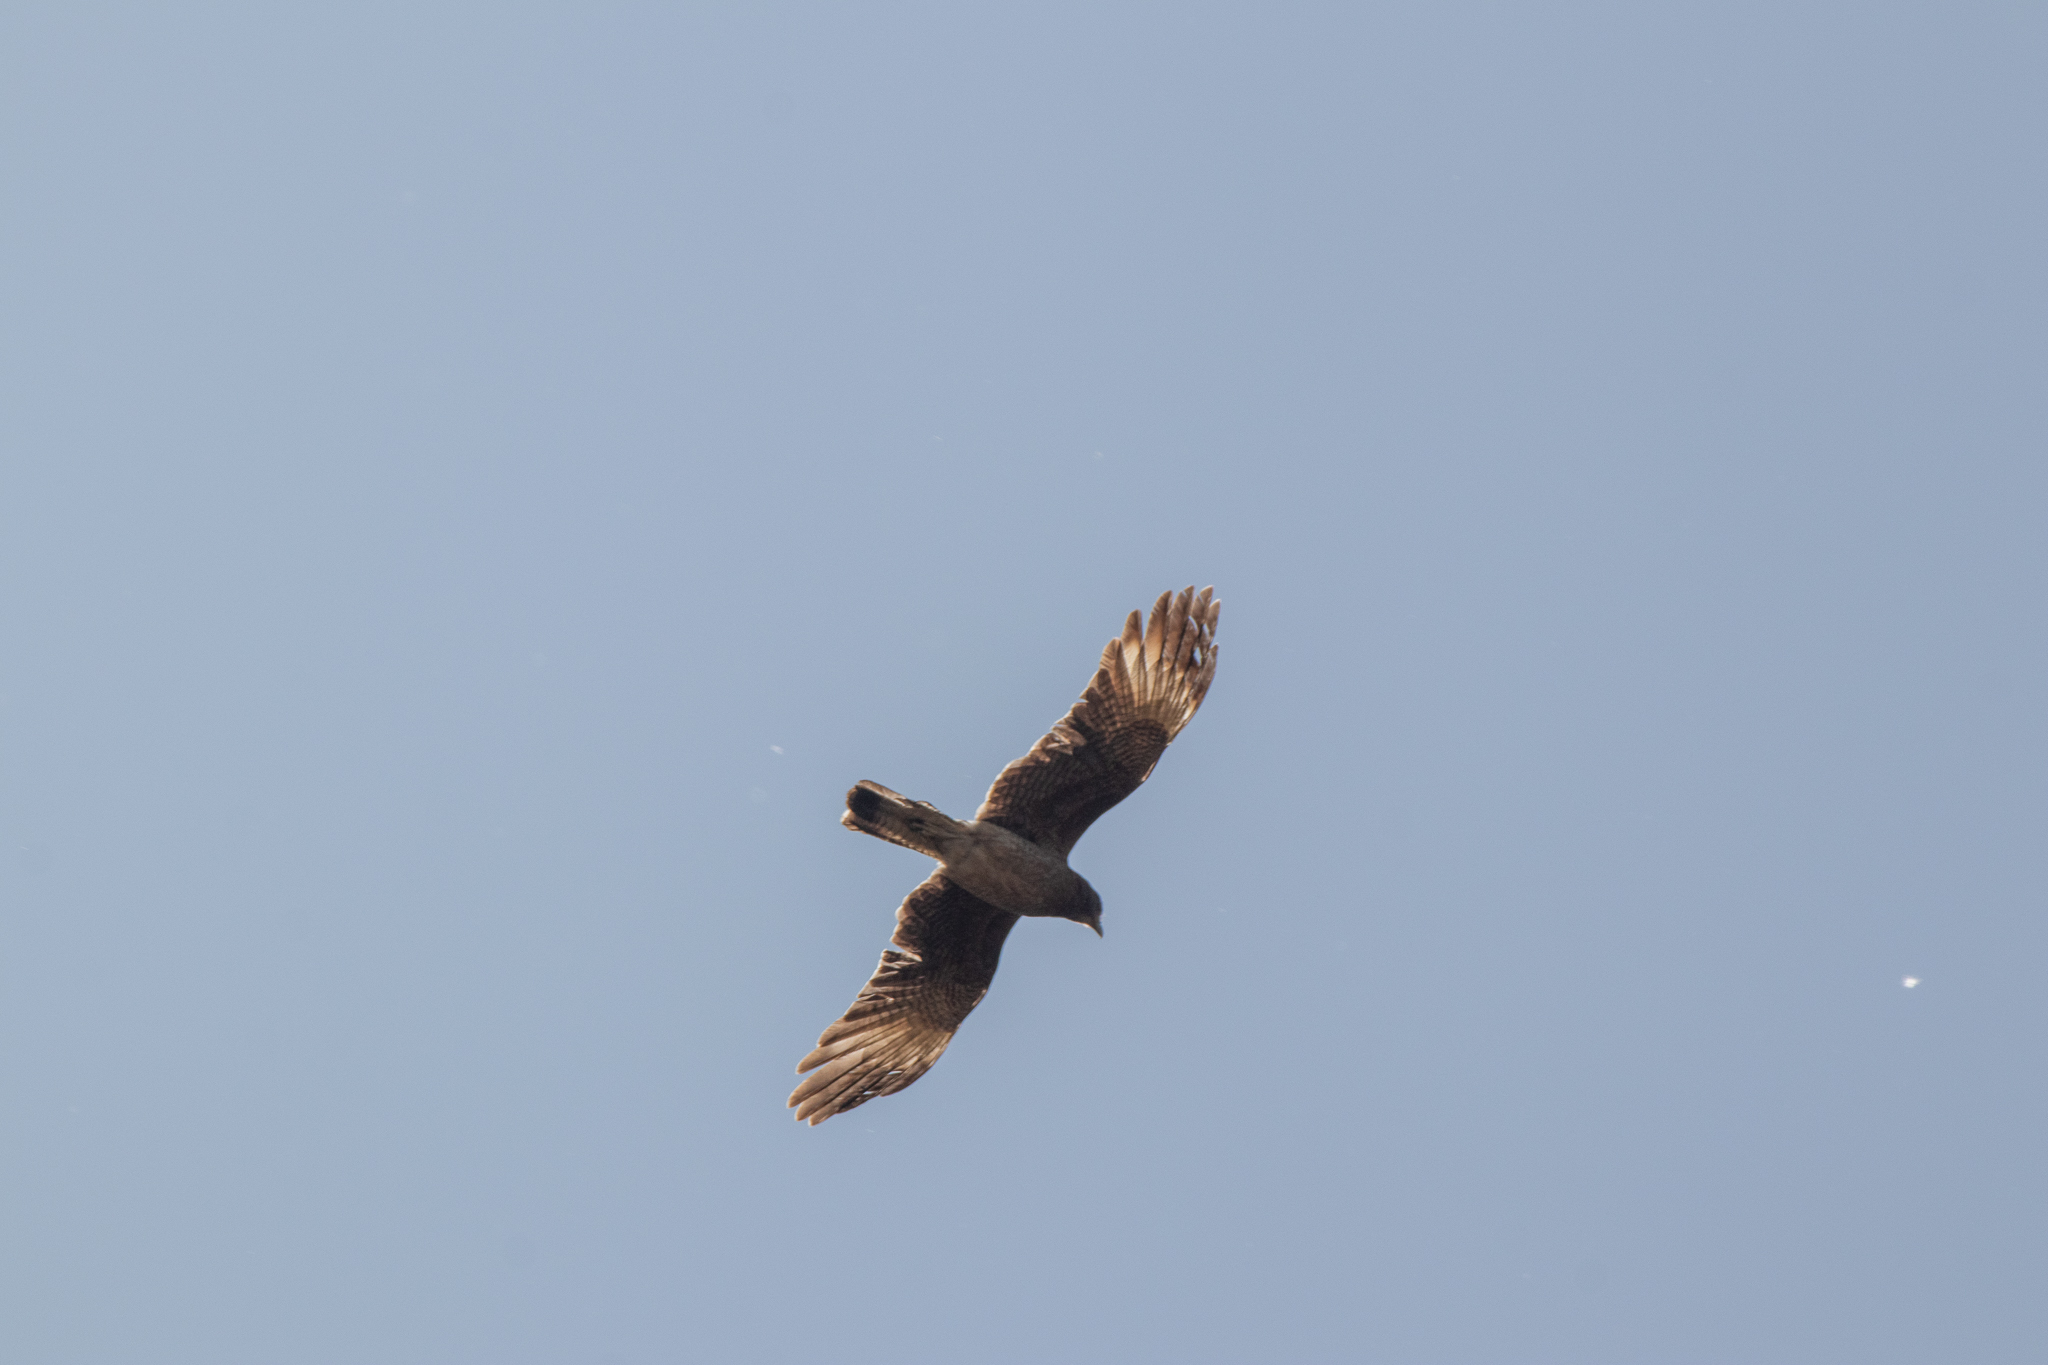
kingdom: Animalia
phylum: Chordata
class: Aves
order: Falconiformes
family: Falconidae
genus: Daptrius
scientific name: Daptrius
